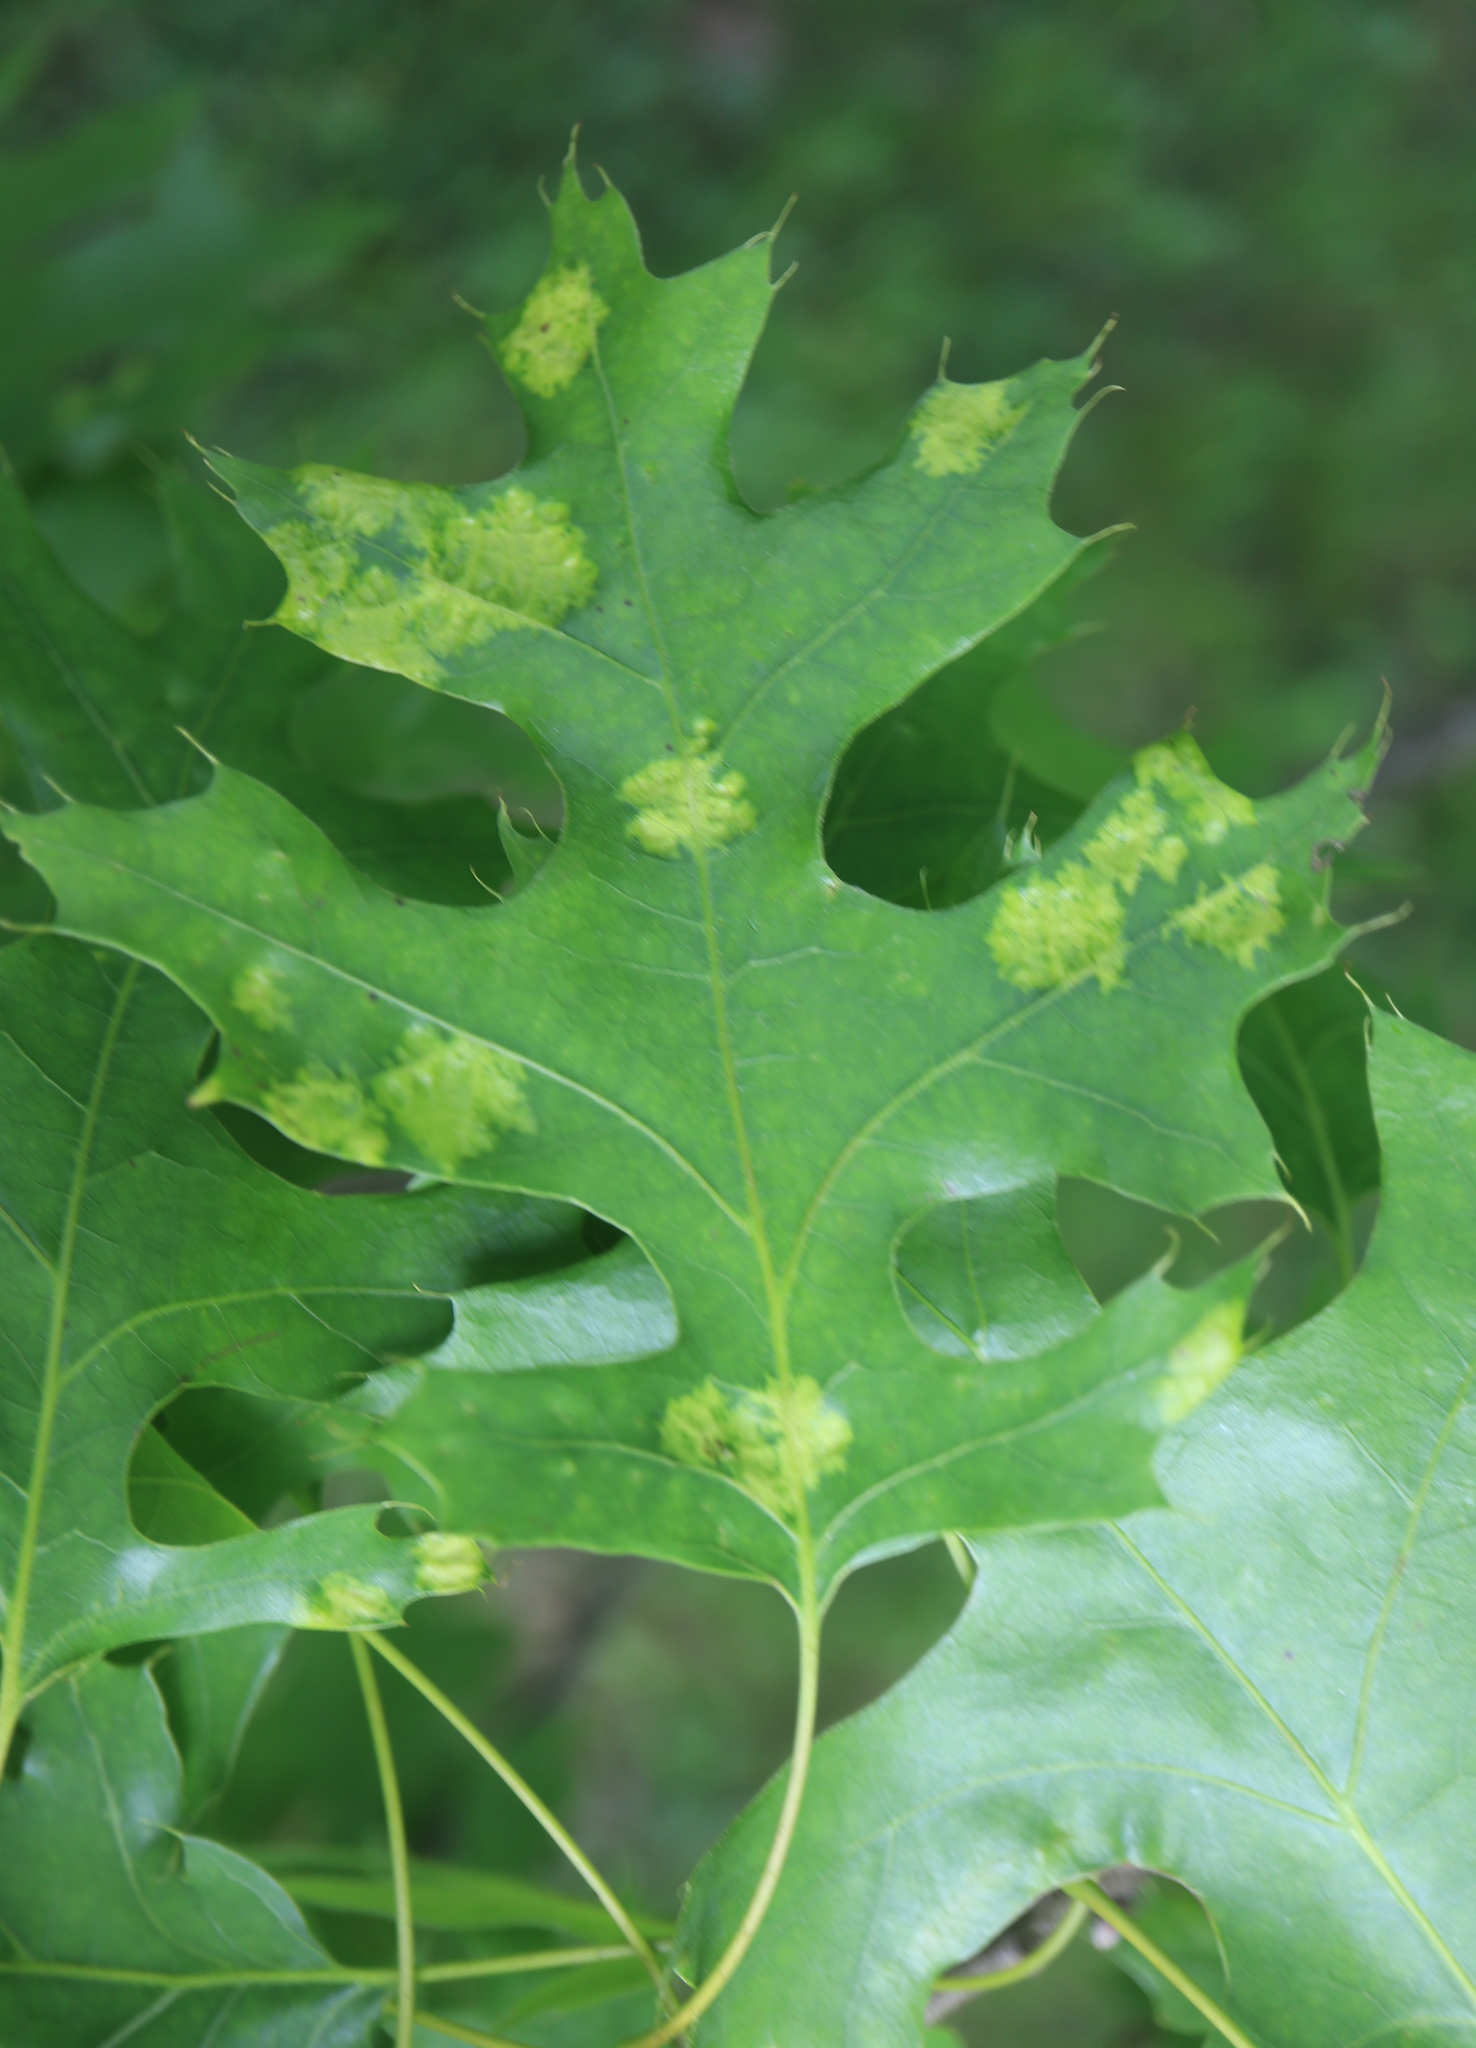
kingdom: Fungi
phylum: Ascomycota
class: Taphrinomycetes
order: Taphrinales
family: Taphrinaceae
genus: Taphrina
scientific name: Taphrina caerulescens
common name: Oak leaf blister
